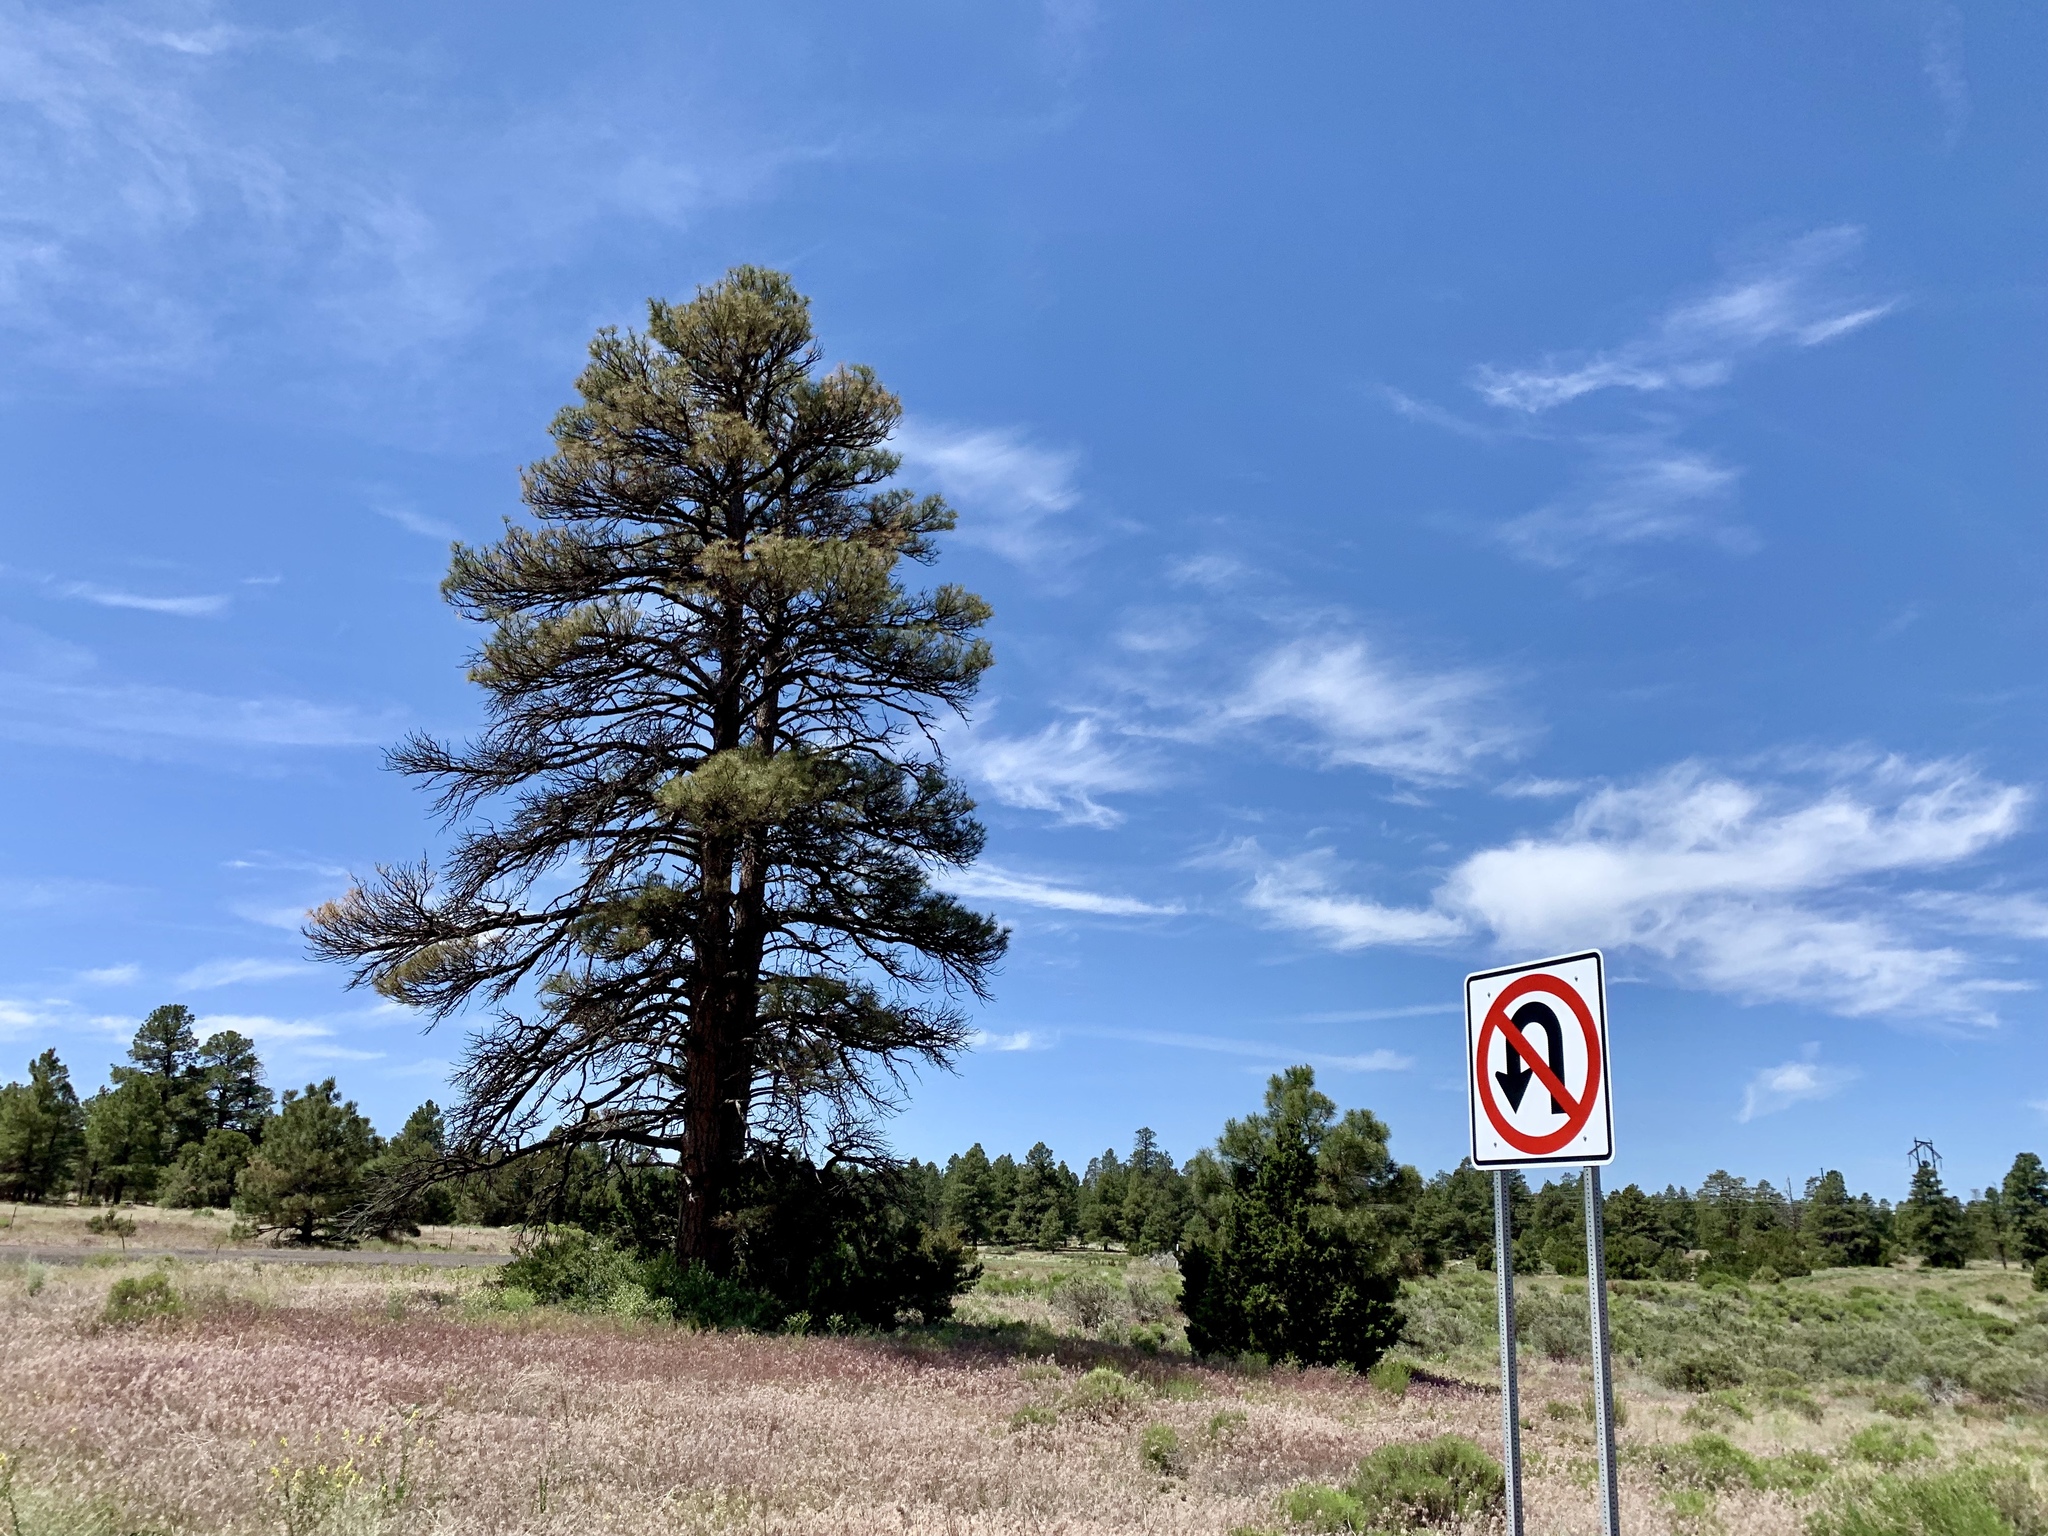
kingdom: Plantae
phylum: Tracheophyta
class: Pinopsida
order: Pinales
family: Pinaceae
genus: Pinus
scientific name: Pinus ponderosa
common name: Western yellow-pine
